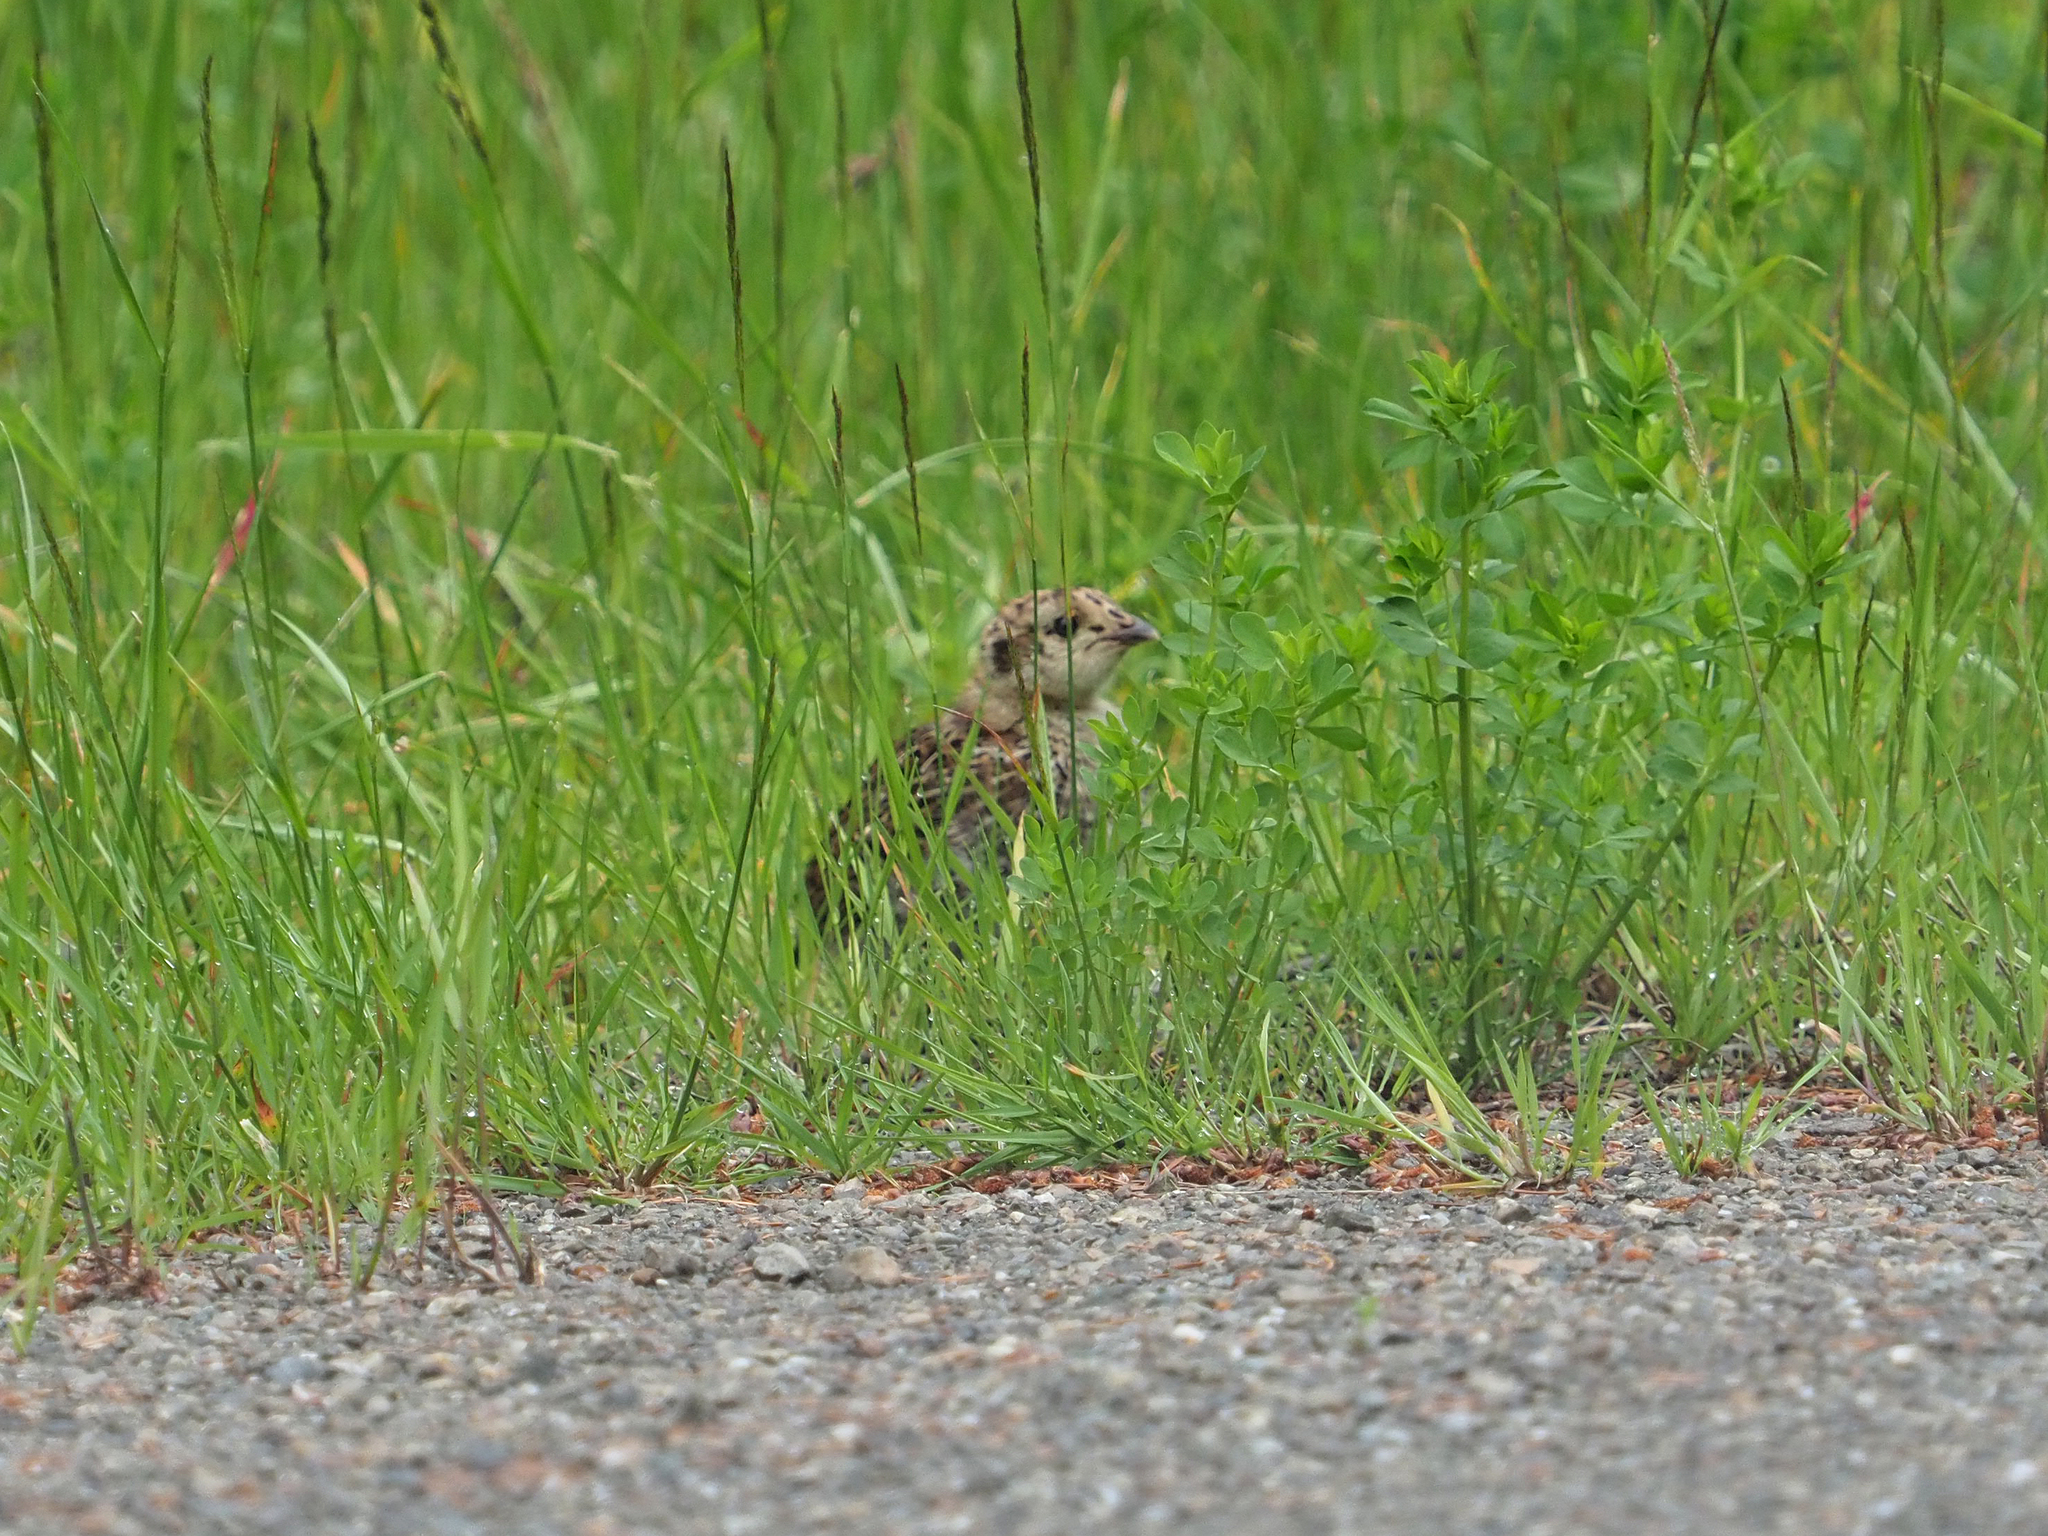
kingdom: Animalia
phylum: Chordata
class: Aves
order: Galliformes
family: Phasianidae
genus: Dendragapus
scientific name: Dendragapus fuliginosus
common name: Sooty grouse
